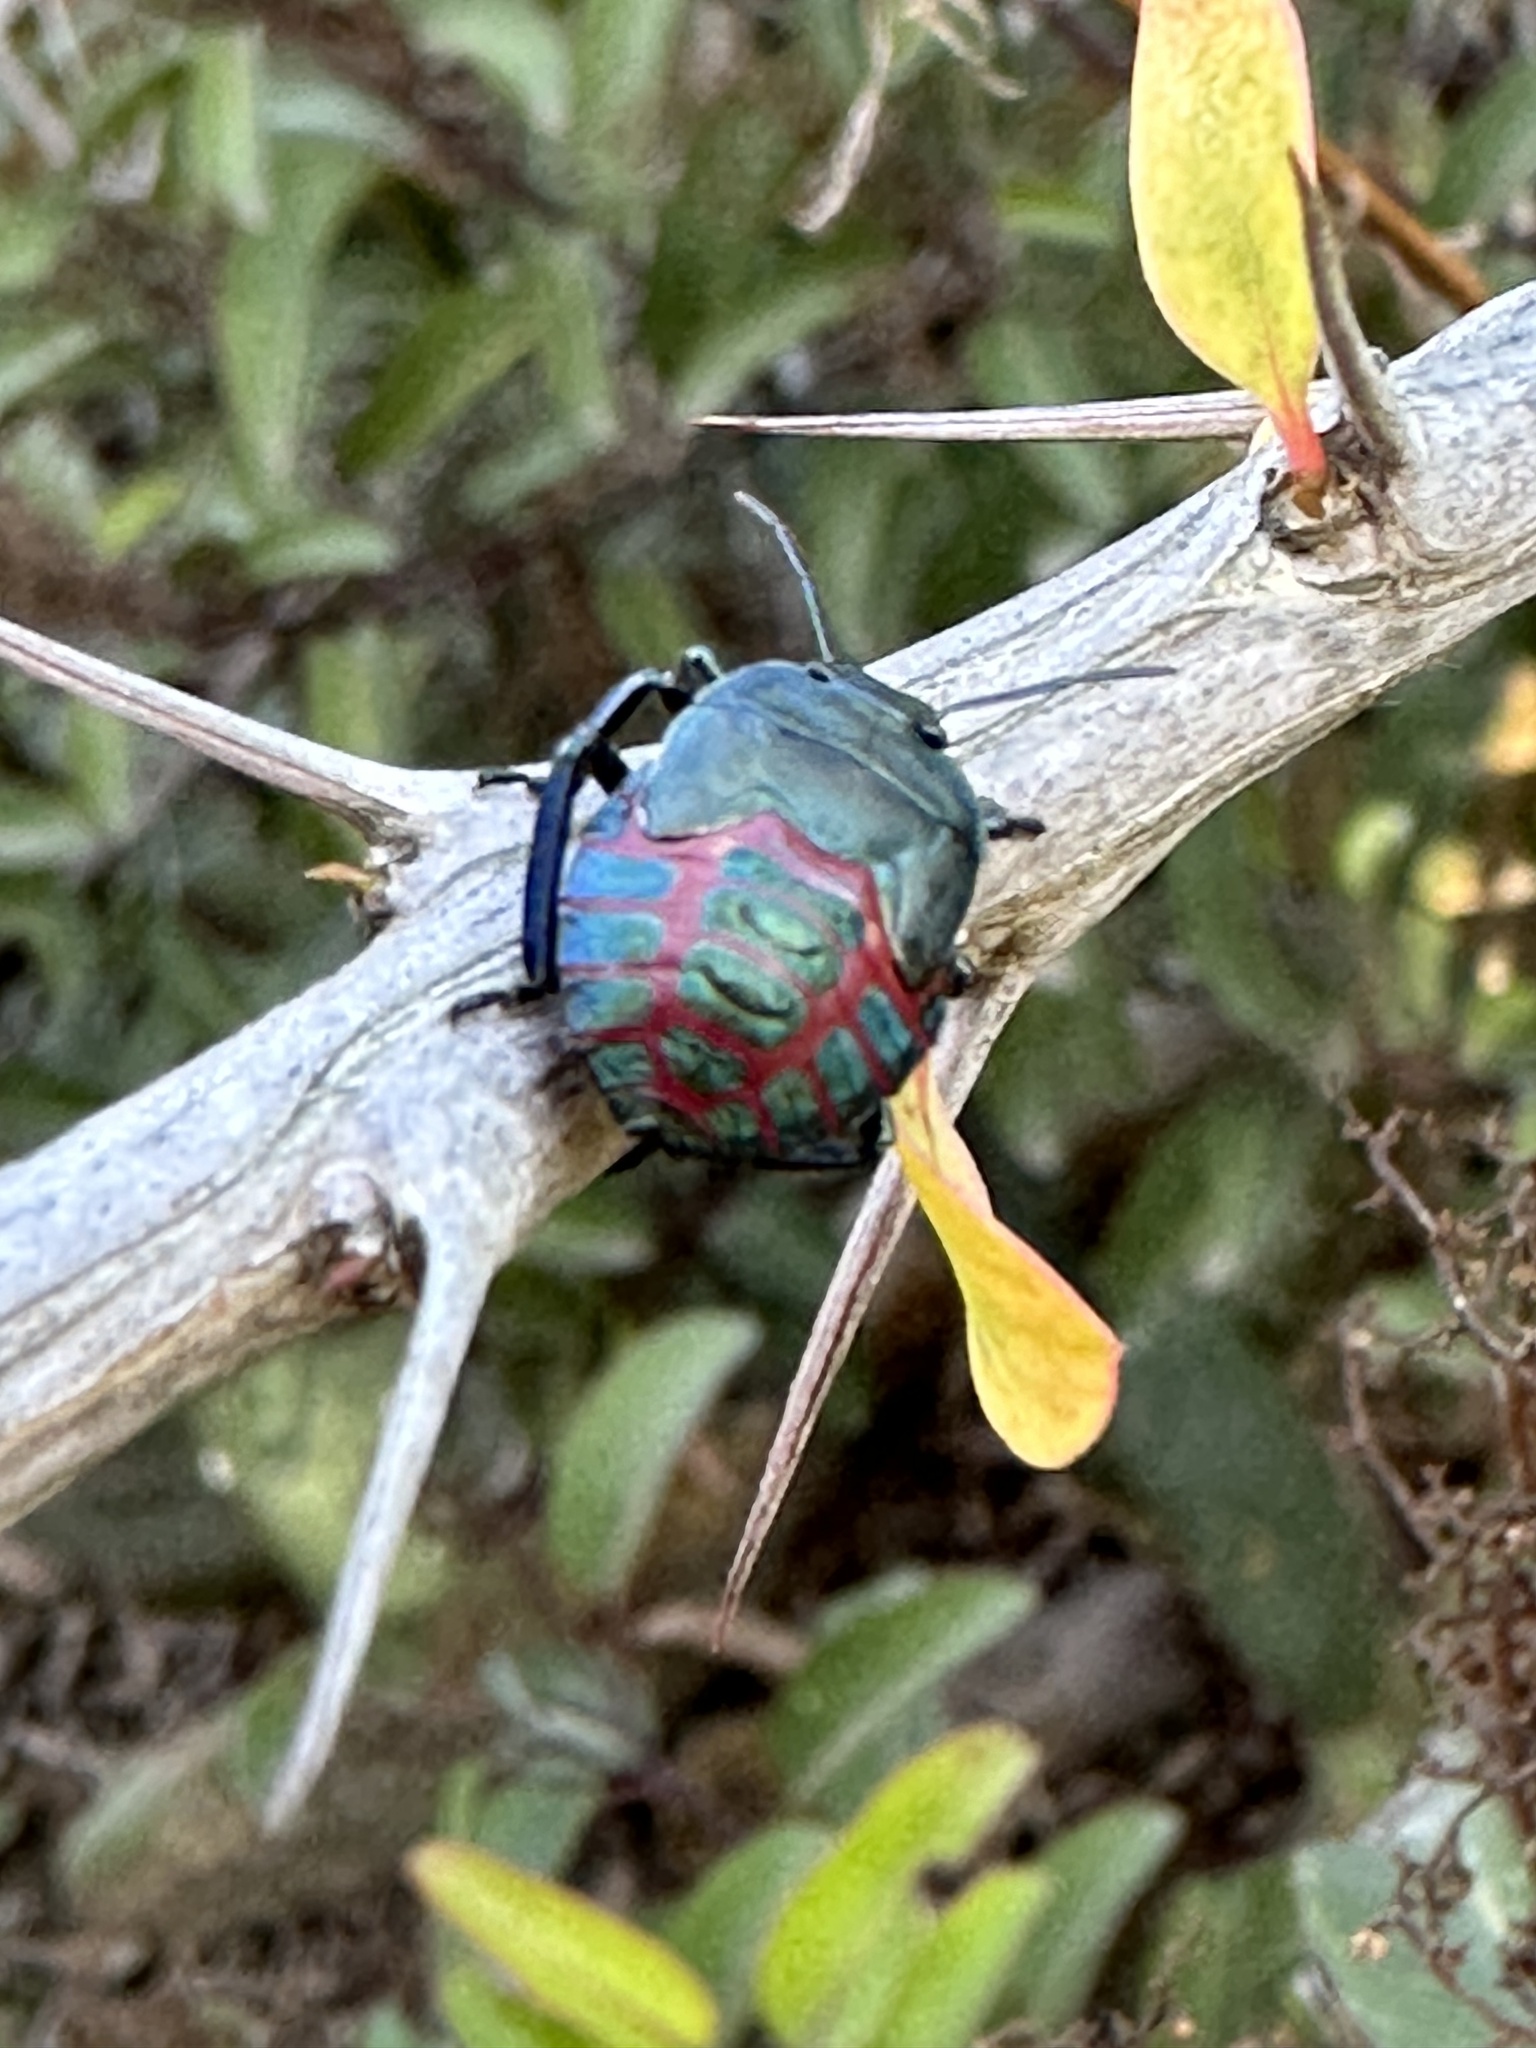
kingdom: Animalia
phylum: Arthropoda
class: Insecta
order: Hemiptera
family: Pentatomidae
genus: Pellaea
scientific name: Pellaea stictica
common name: Stink bug
